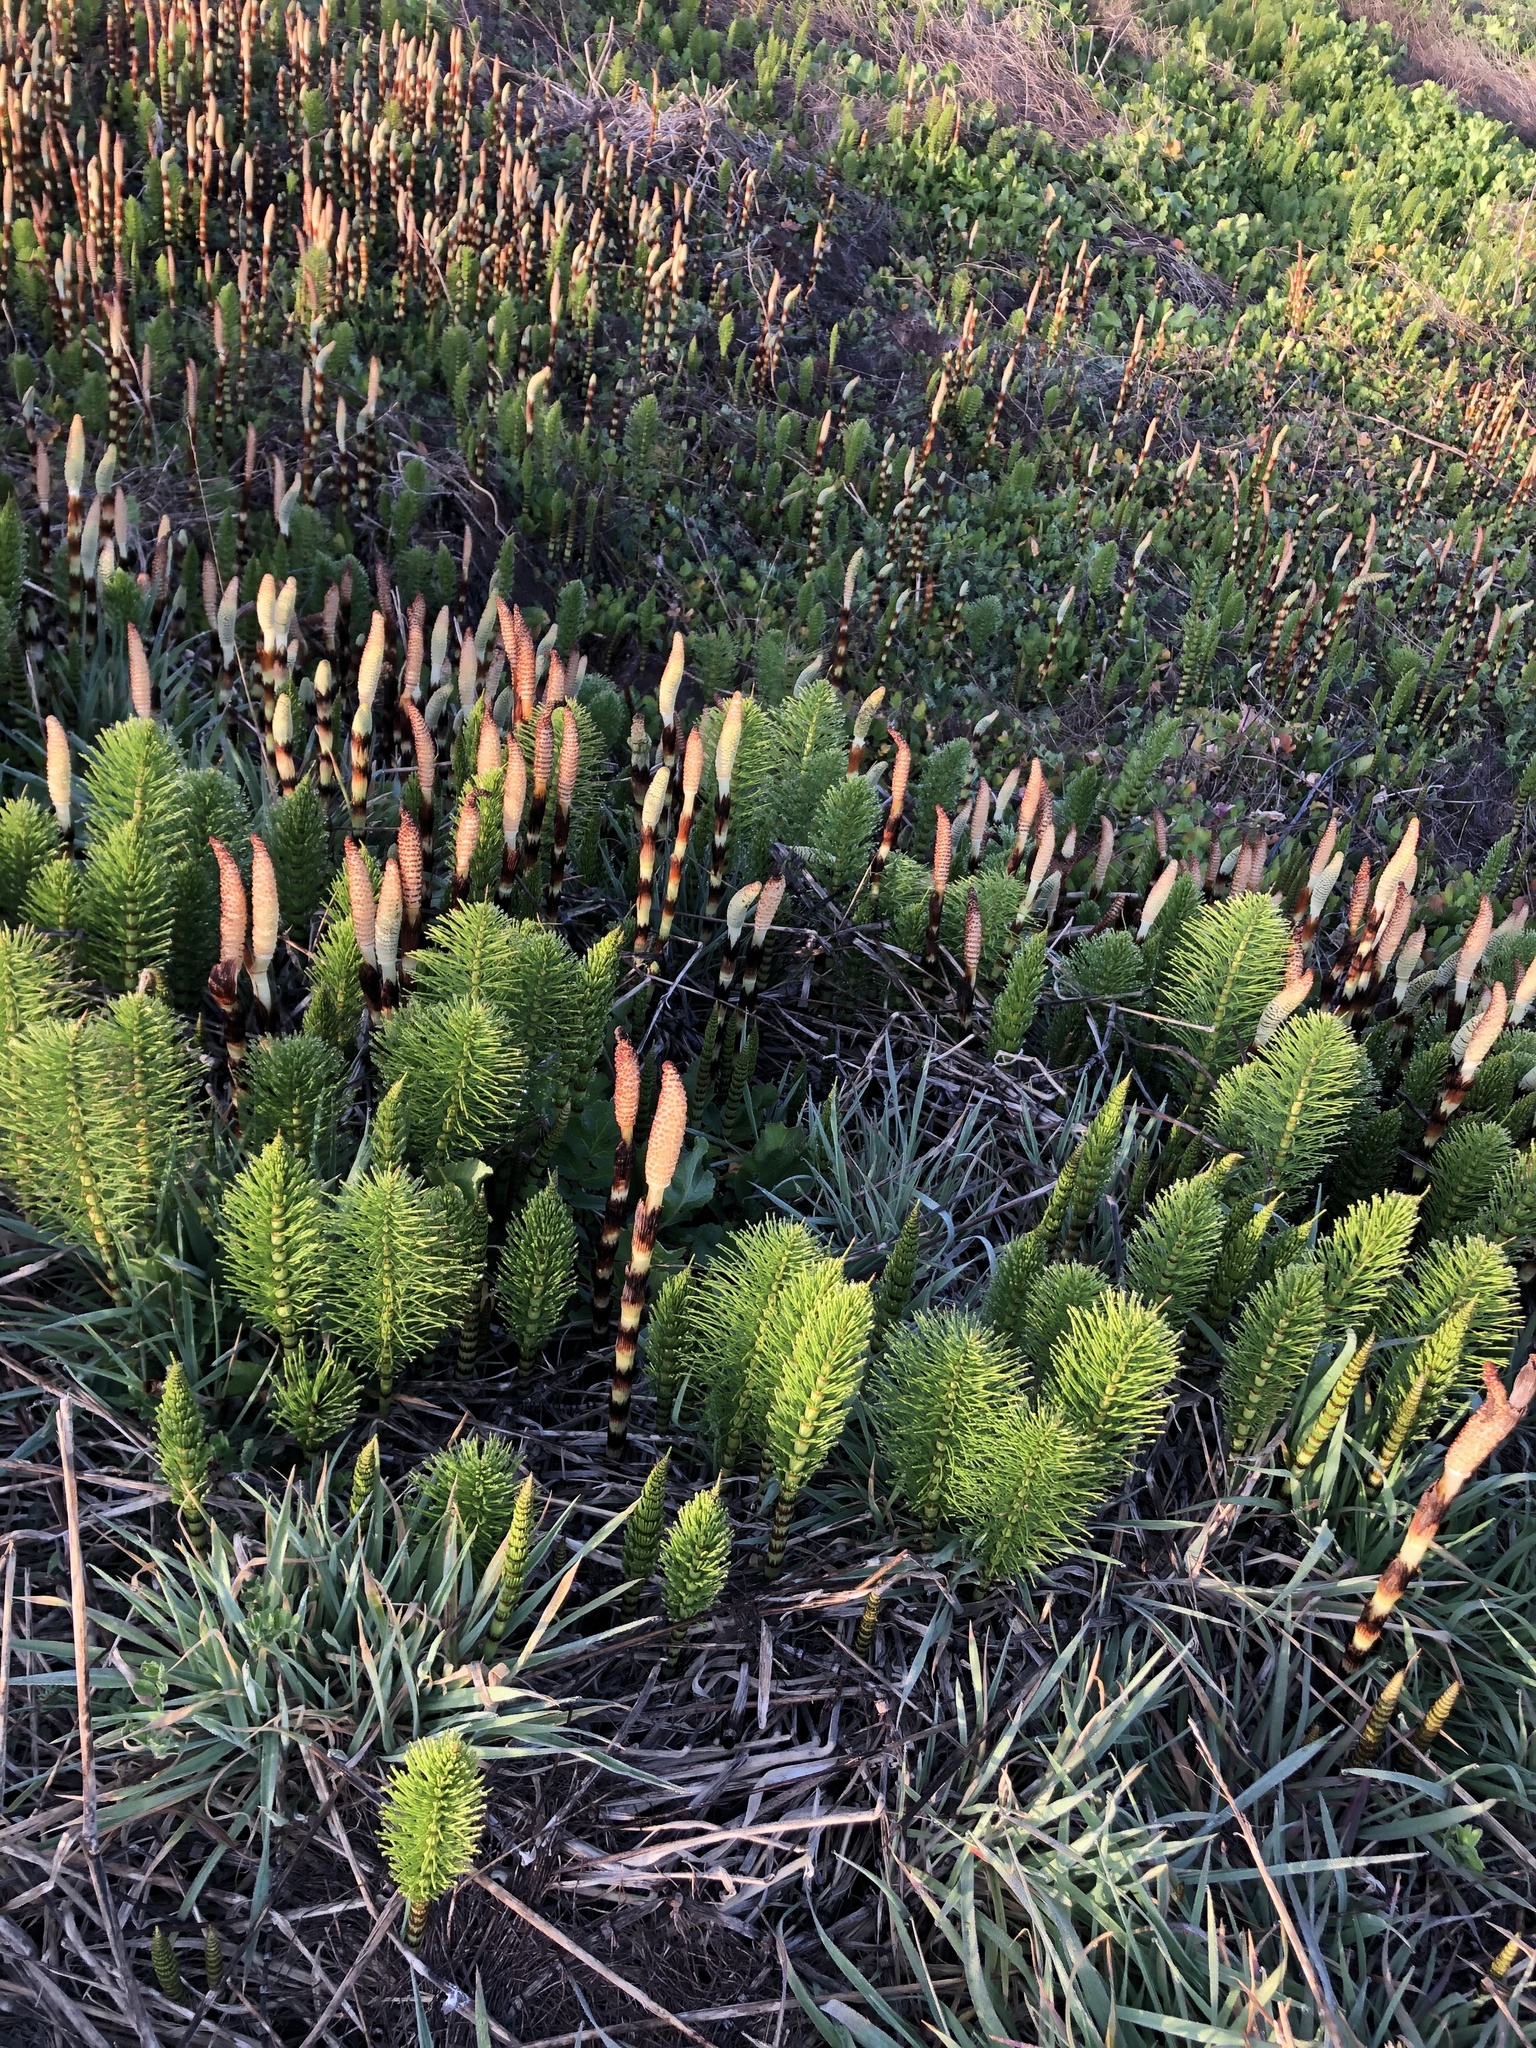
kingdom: Plantae
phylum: Tracheophyta
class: Polypodiopsida
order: Equisetales
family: Equisetaceae
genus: Equisetum
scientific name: Equisetum telmateia
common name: Great horsetail
